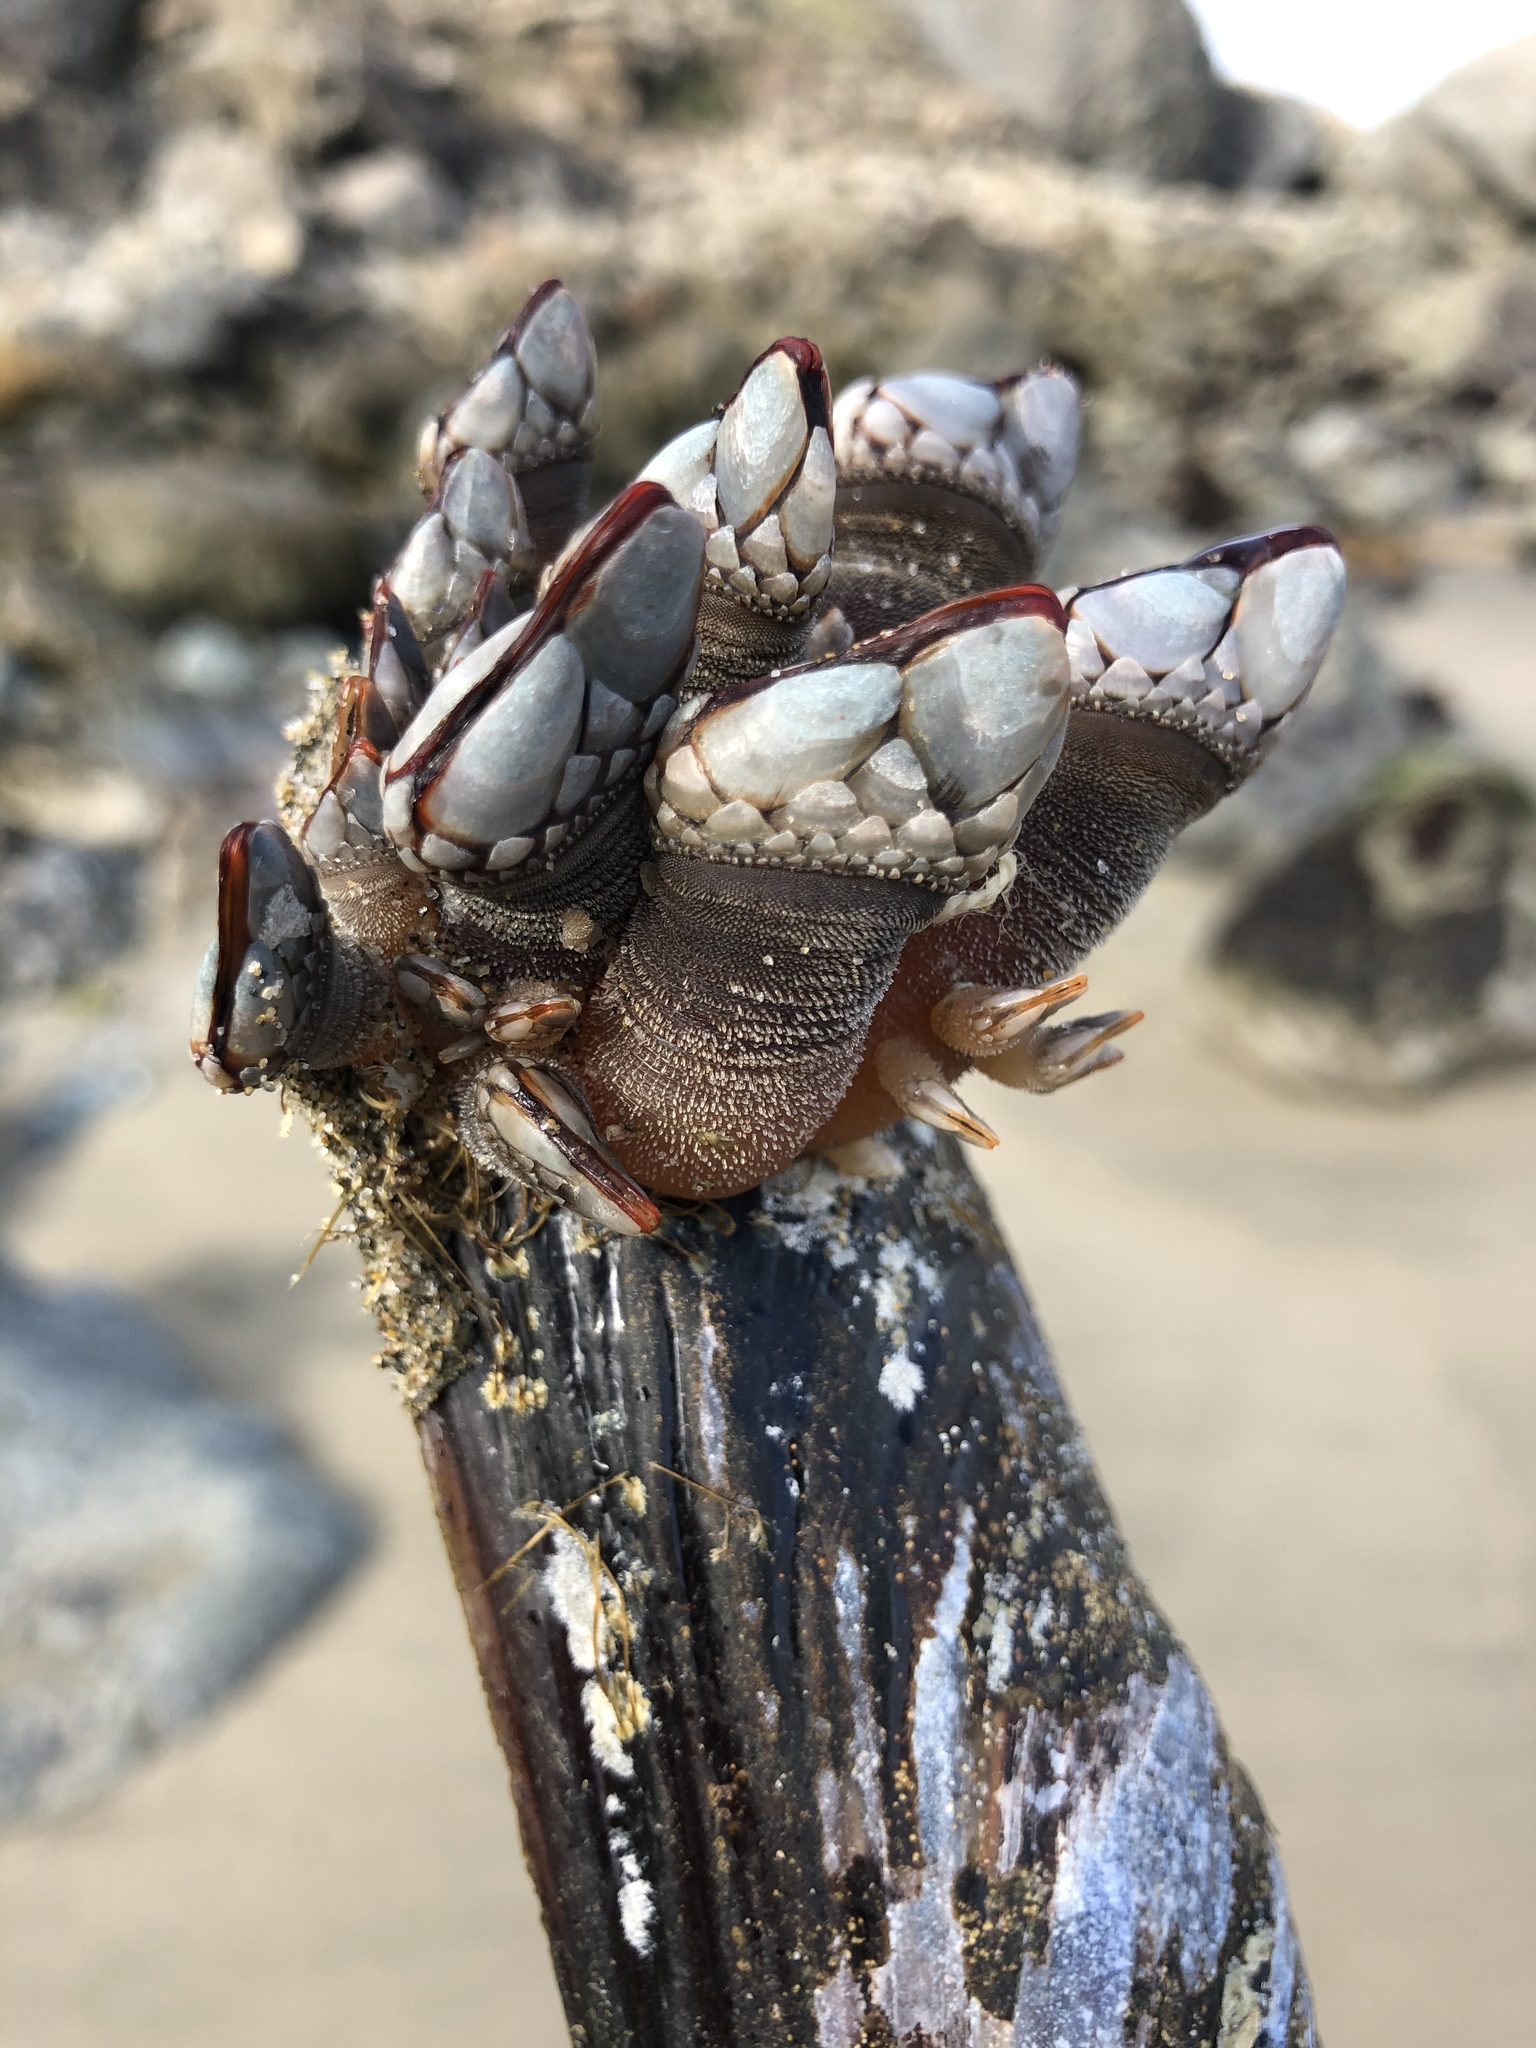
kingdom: Animalia
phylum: Arthropoda
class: Maxillopoda
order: Pedunculata
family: Pollicipedidae
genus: Pollicipes
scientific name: Pollicipes polymerus
